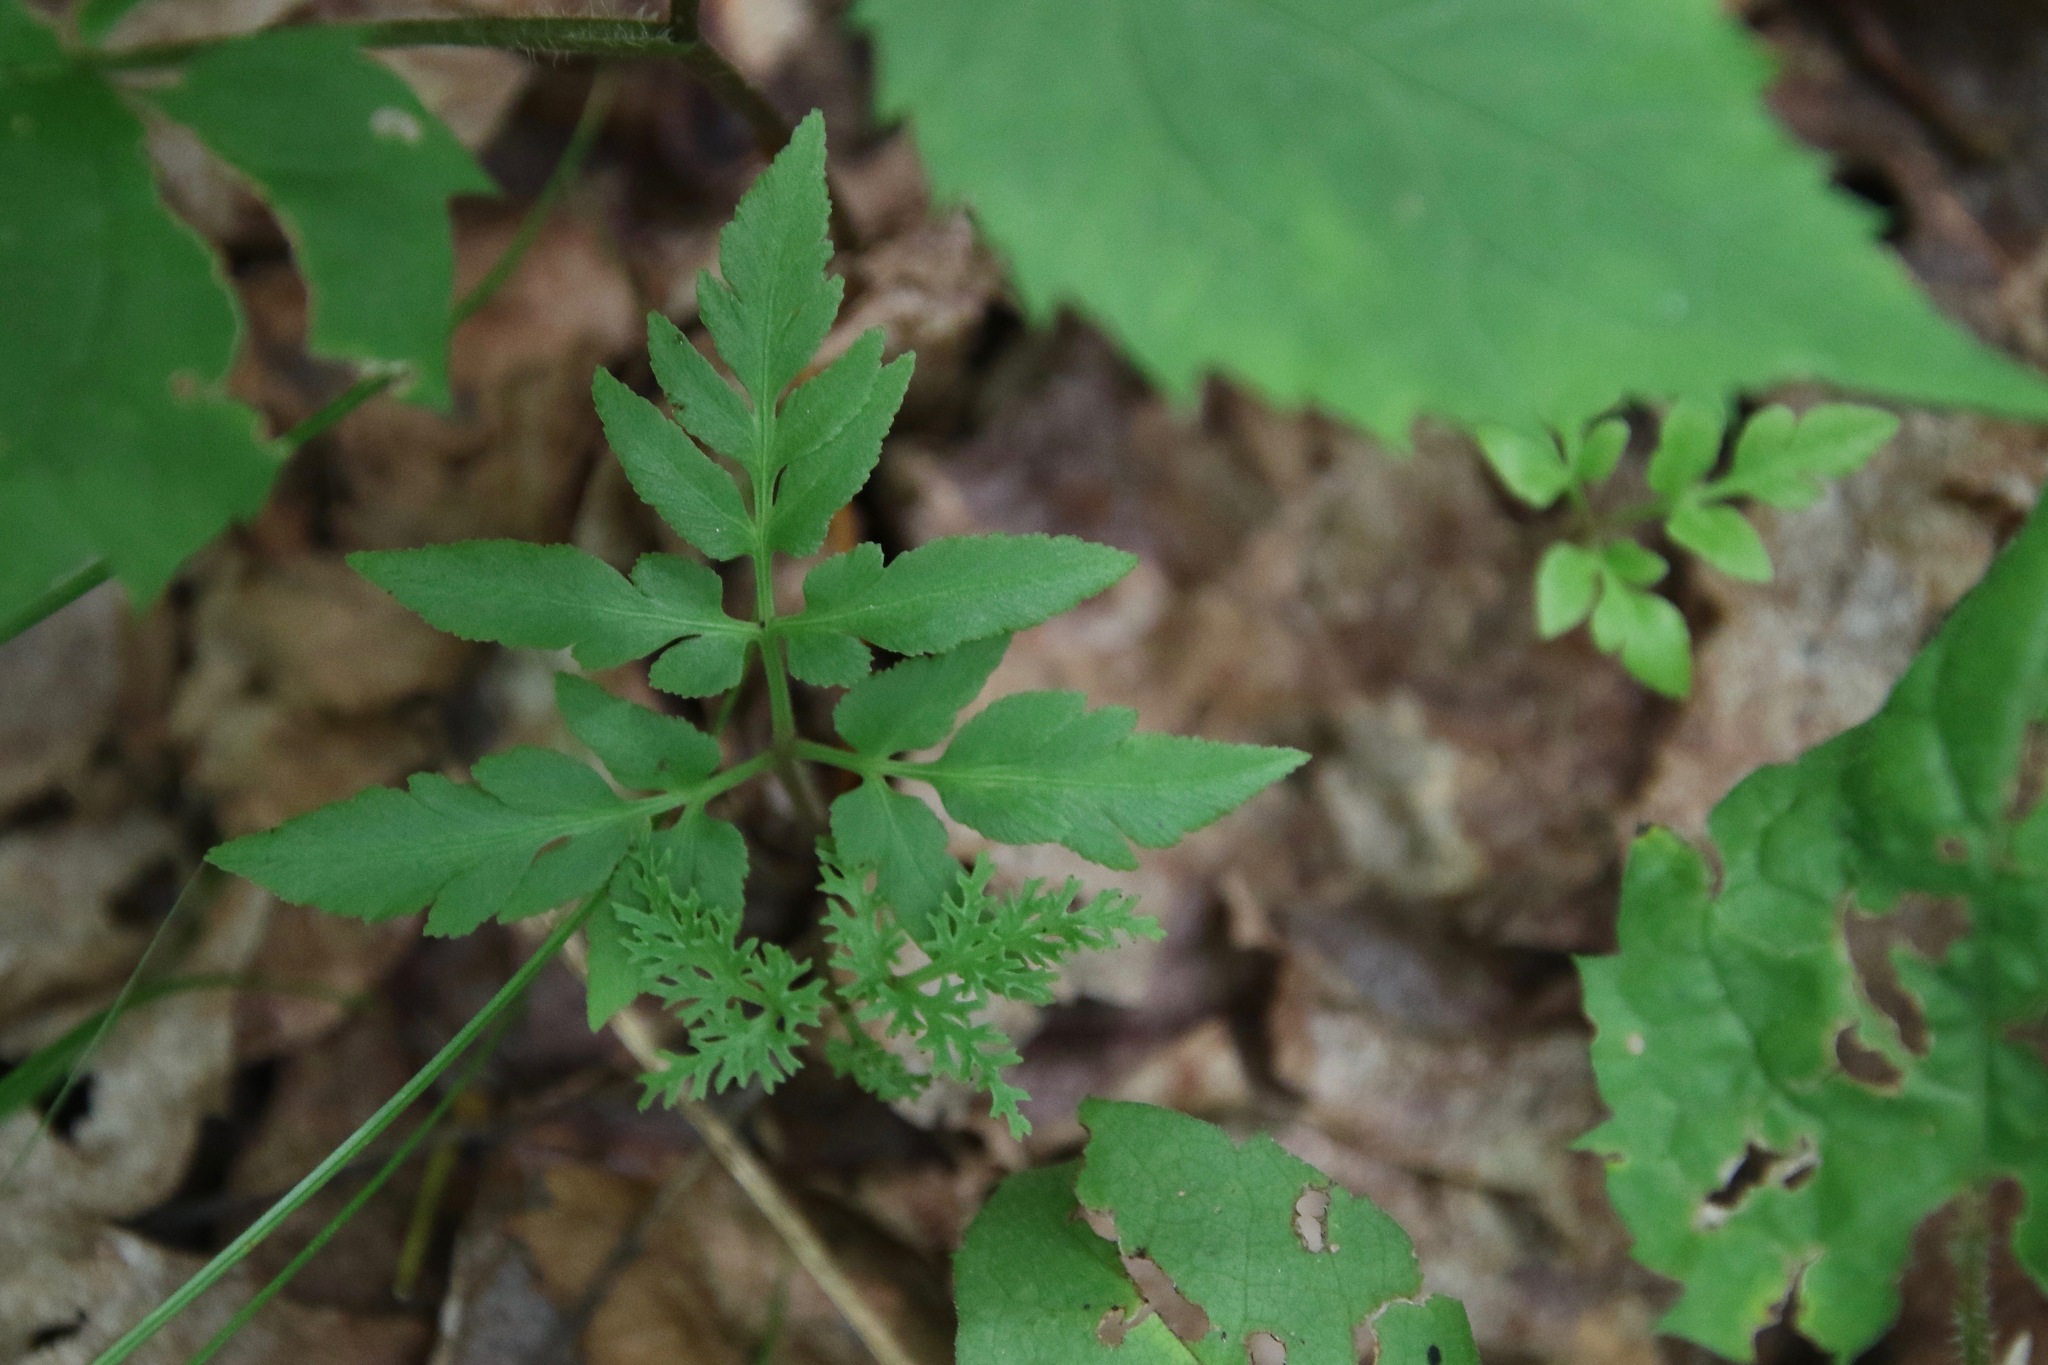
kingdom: Plantae
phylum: Tracheophyta
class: Polypodiopsida
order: Ophioglossales
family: Ophioglossaceae
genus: Sceptridium
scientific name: Sceptridium dissectum
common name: Cut-leaved grapefern
